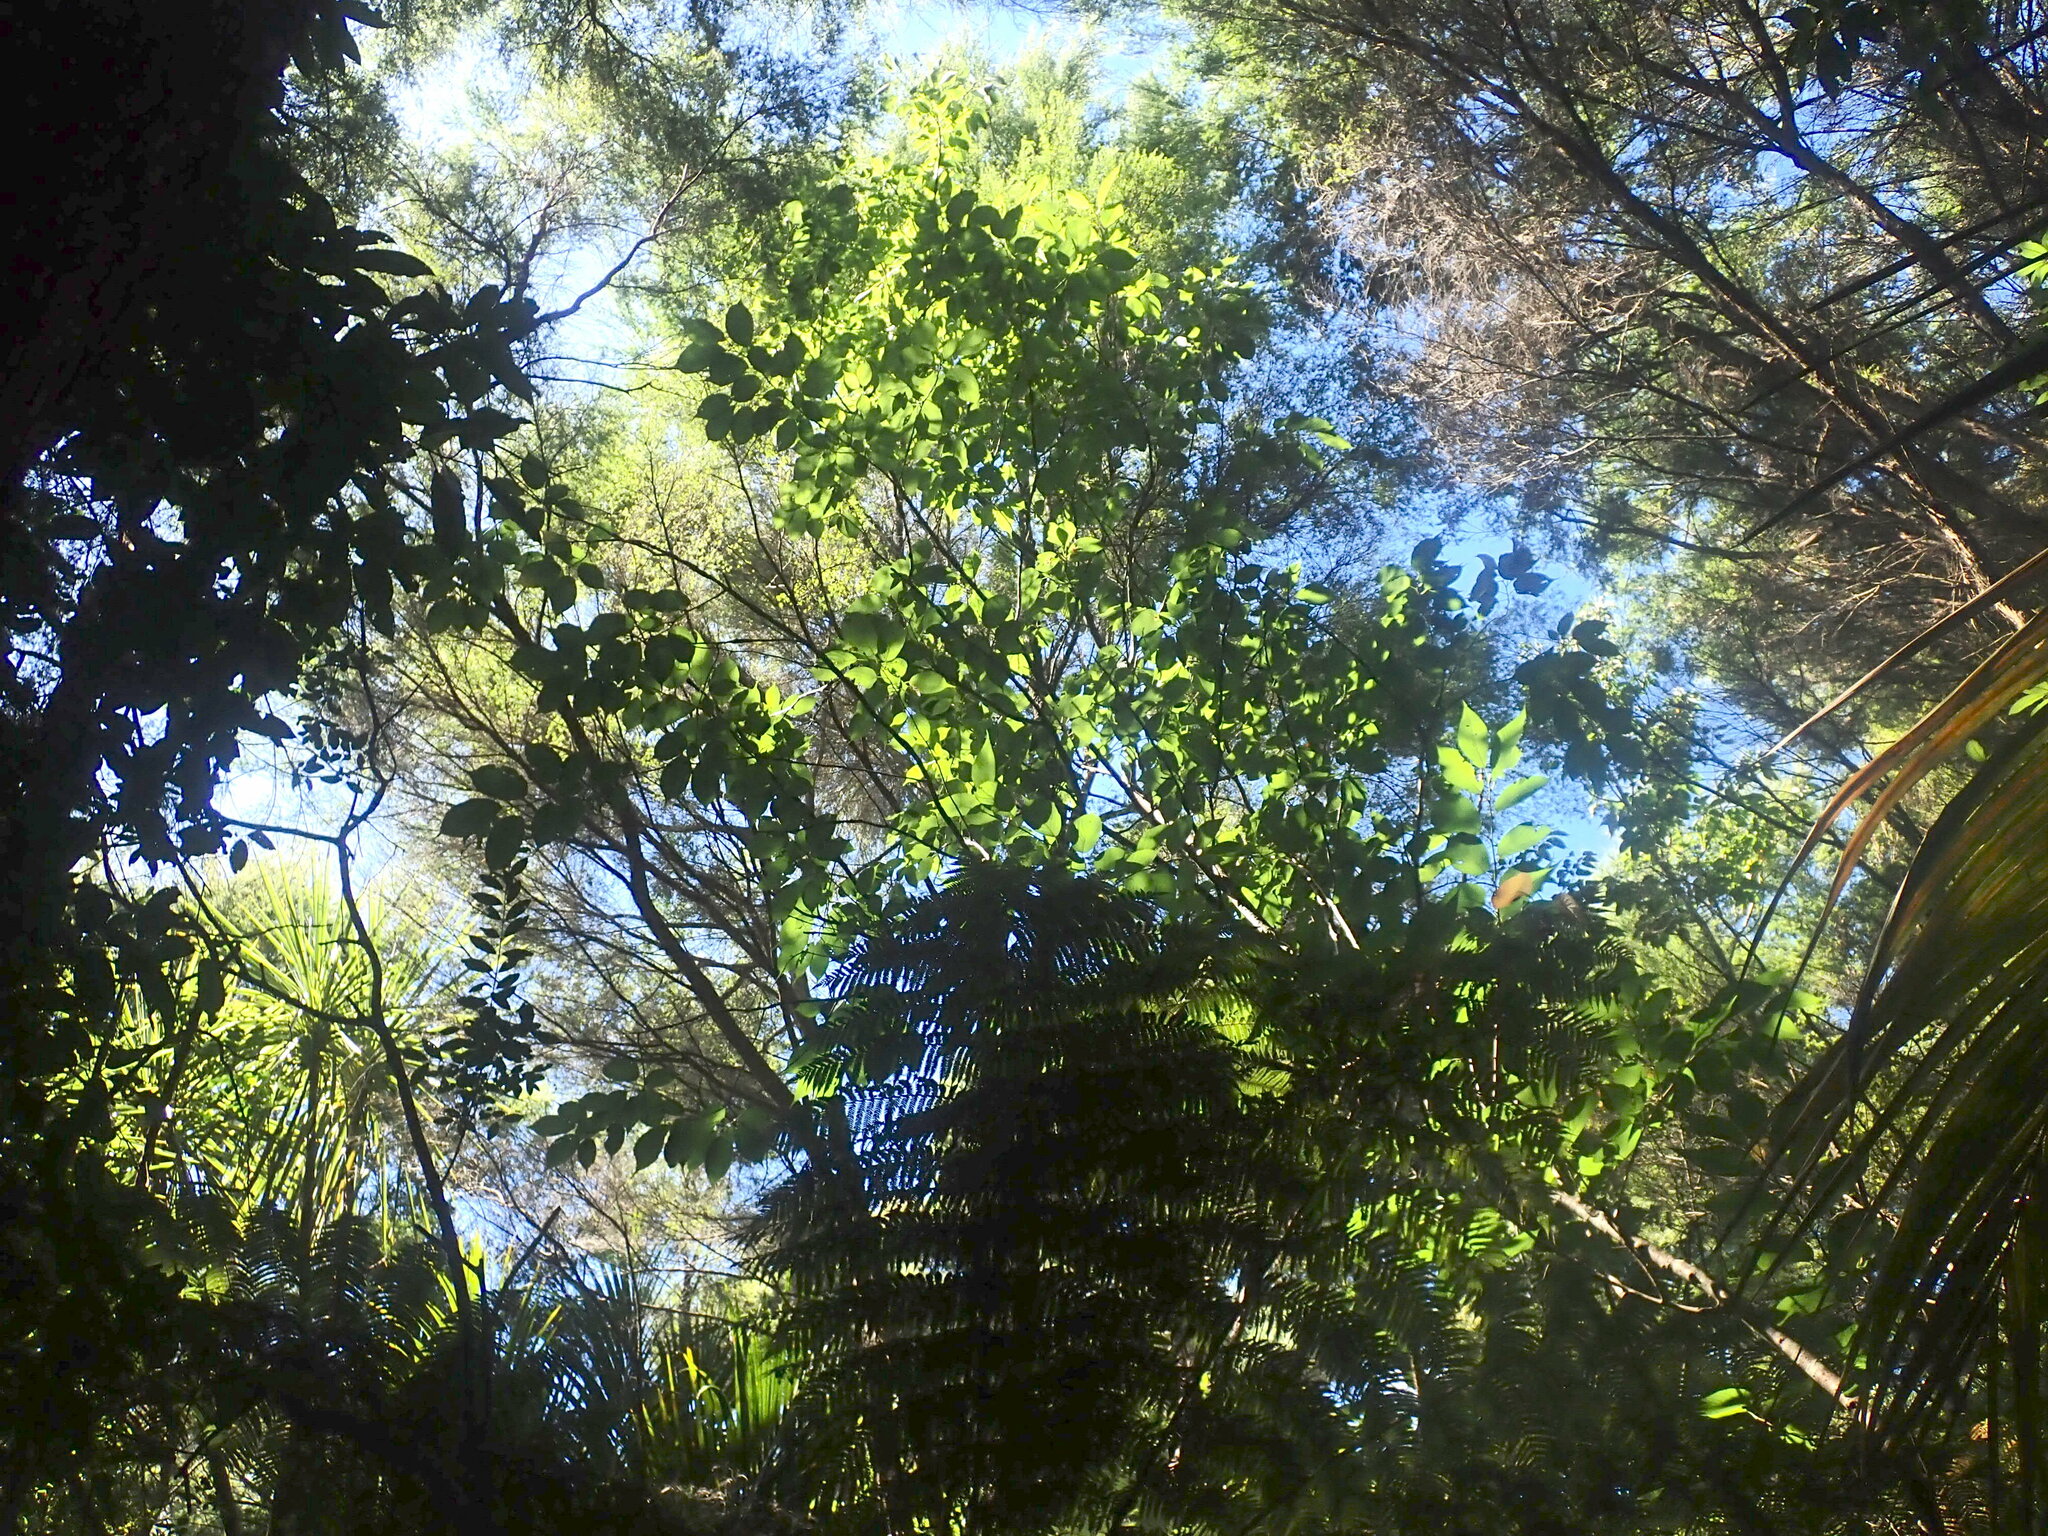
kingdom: Plantae
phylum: Tracheophyta
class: Magnoliopsida
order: Rosales
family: Rosaceae
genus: Prunus
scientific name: Prunus serrulata
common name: Japanese cherry
